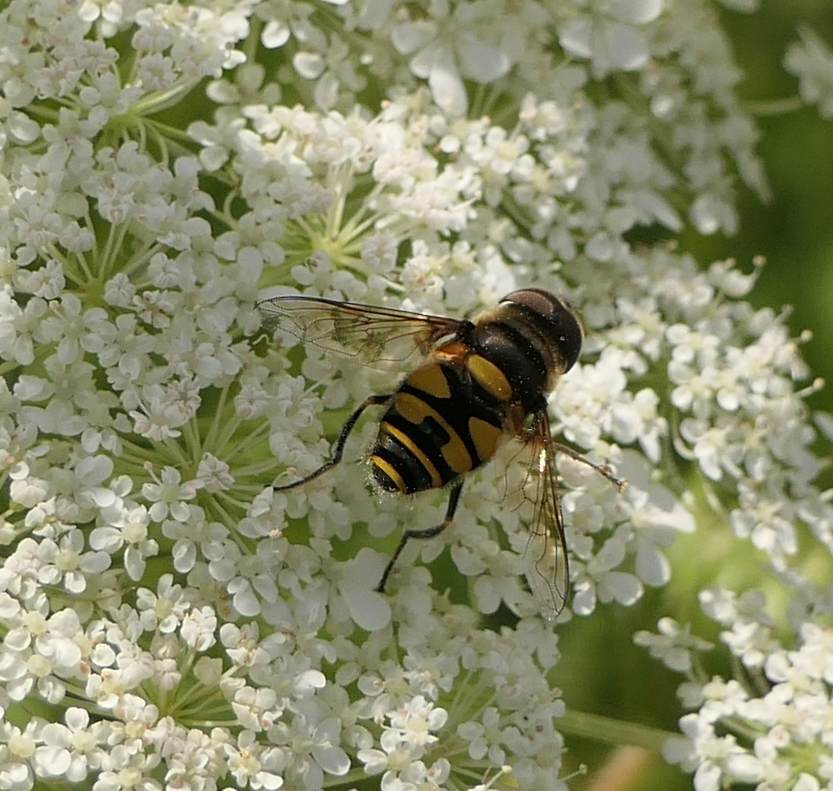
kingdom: Animalia
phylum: Arthropoda
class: Insecta
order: Diptera
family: Syrphidae
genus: Eristalis
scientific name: Eristalis transversa
